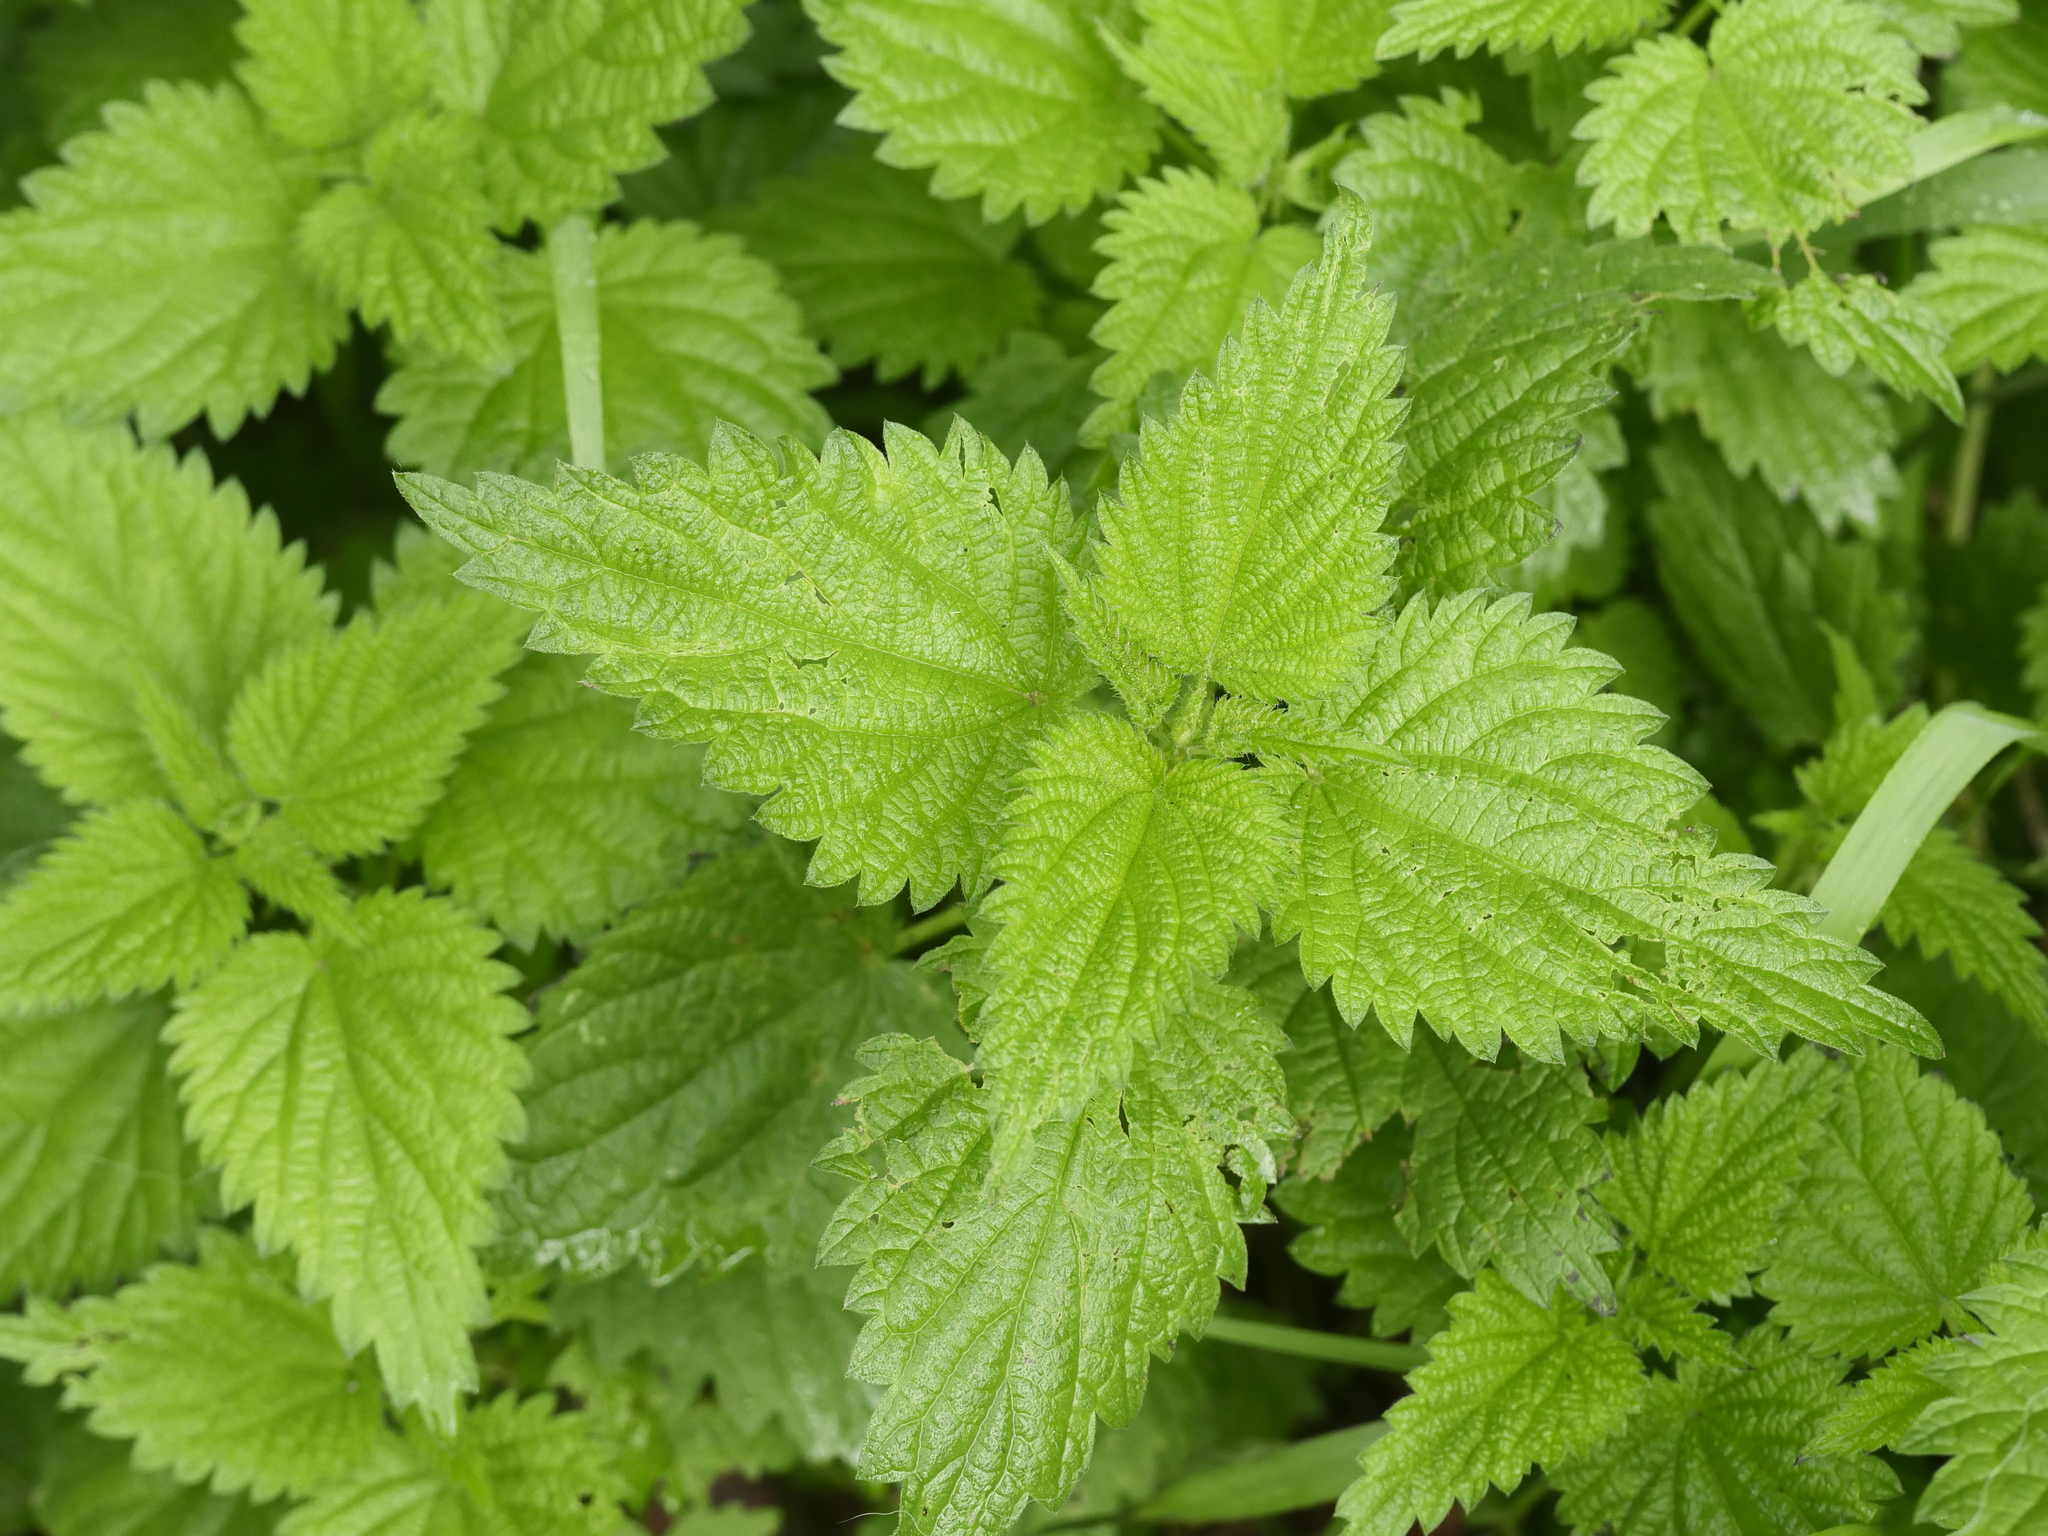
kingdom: Plantae
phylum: Tracheophyta
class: Magnoliopsida
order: Rosales
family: Urticaceae
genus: Urtica
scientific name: Urtica dioica
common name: Common nettle
